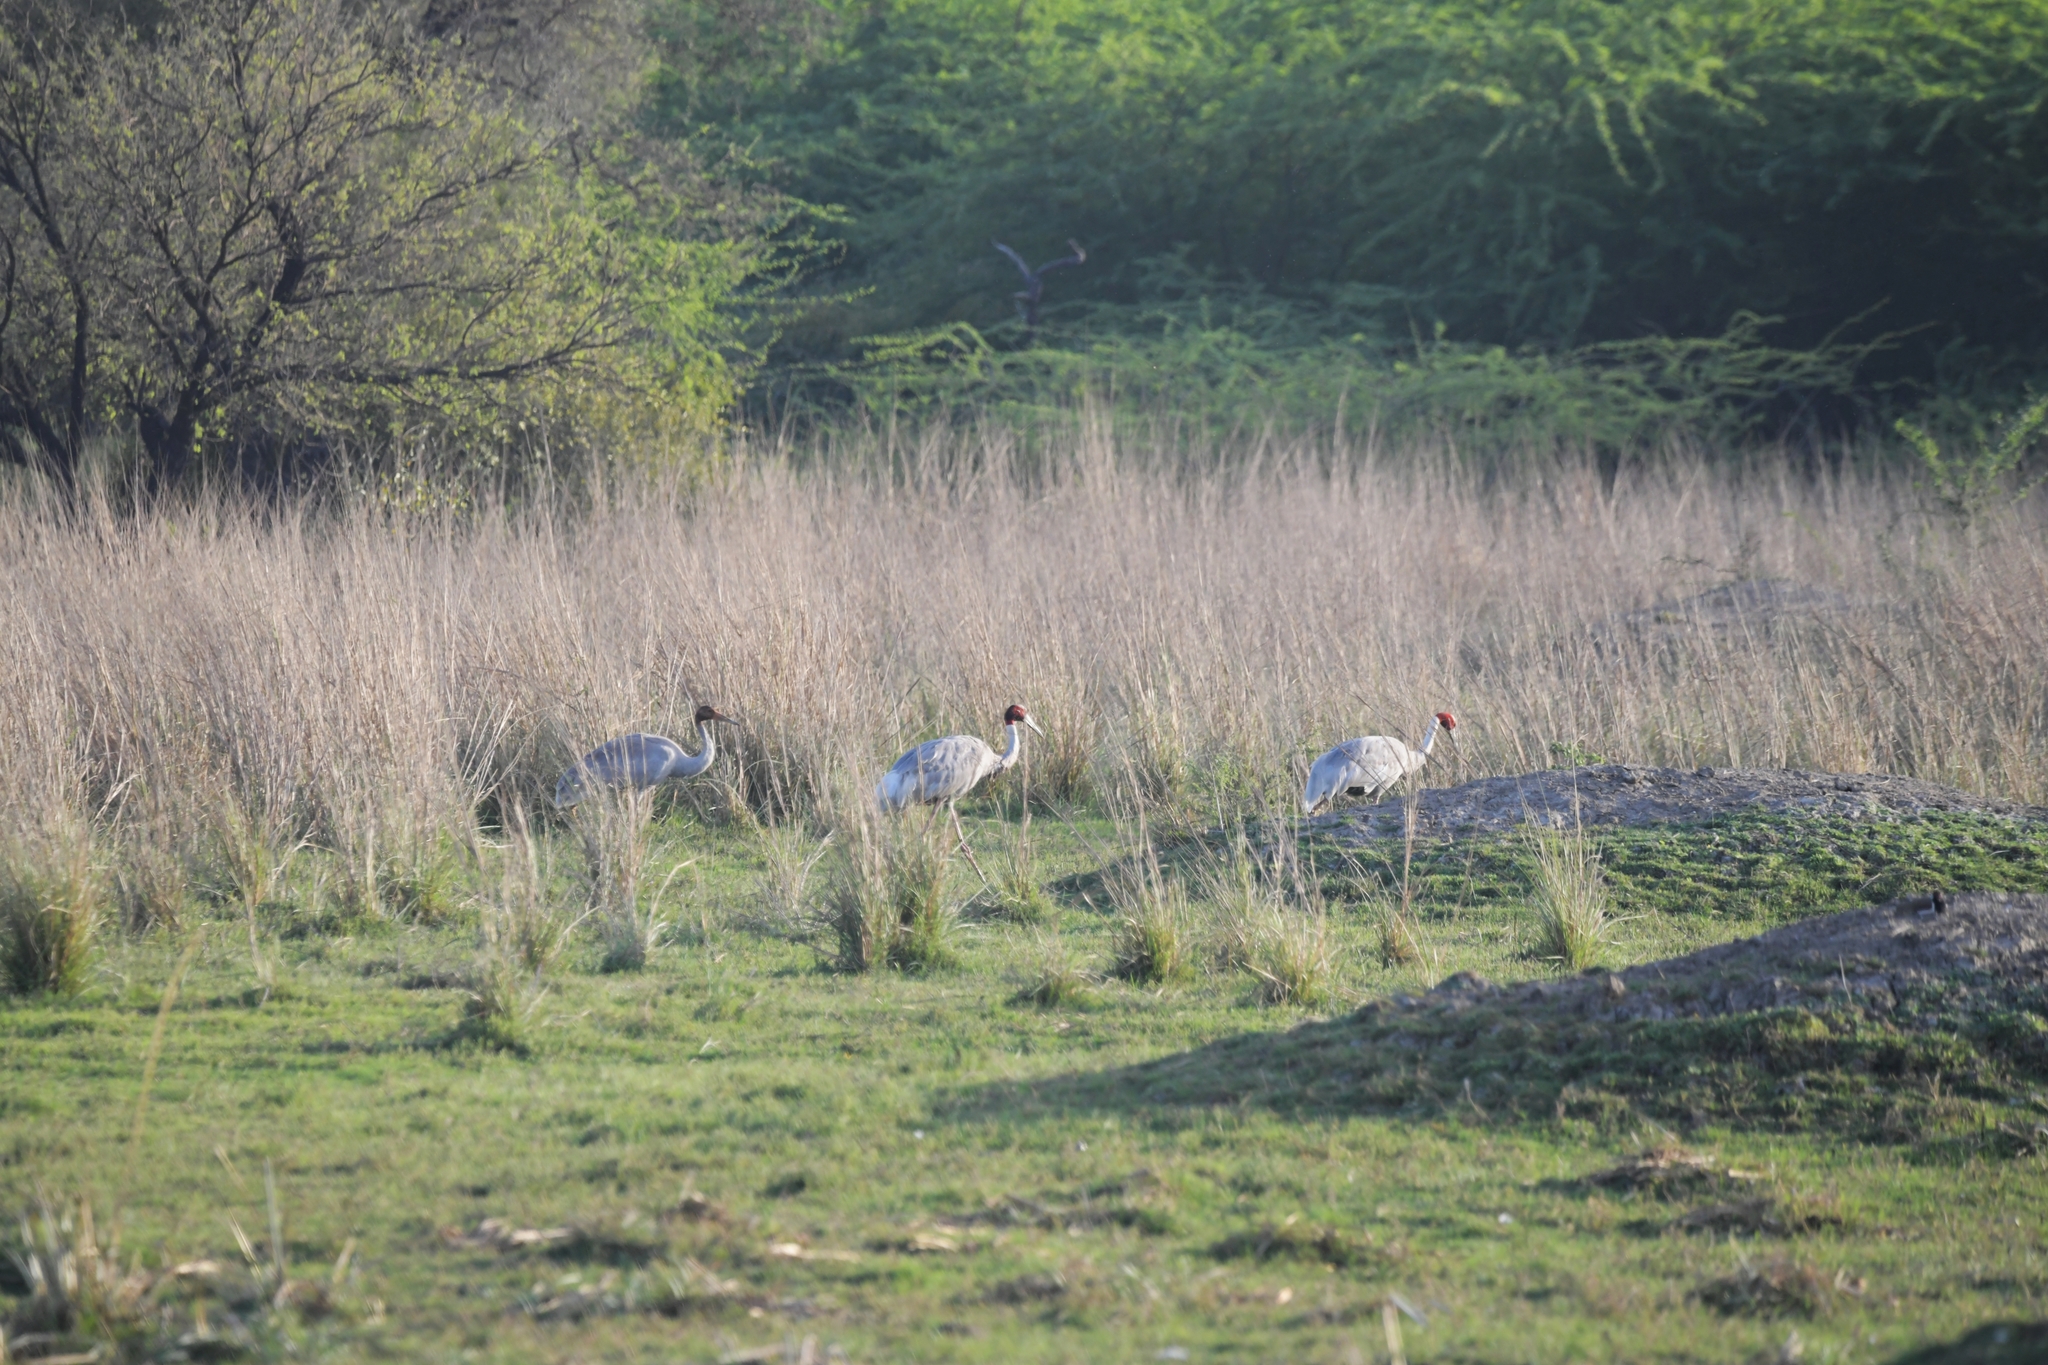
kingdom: Animalia
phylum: Chordata
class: Aves
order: Gruiformes
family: Gruidae
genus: Grus
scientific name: Grus antigone
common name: Sarus crane
